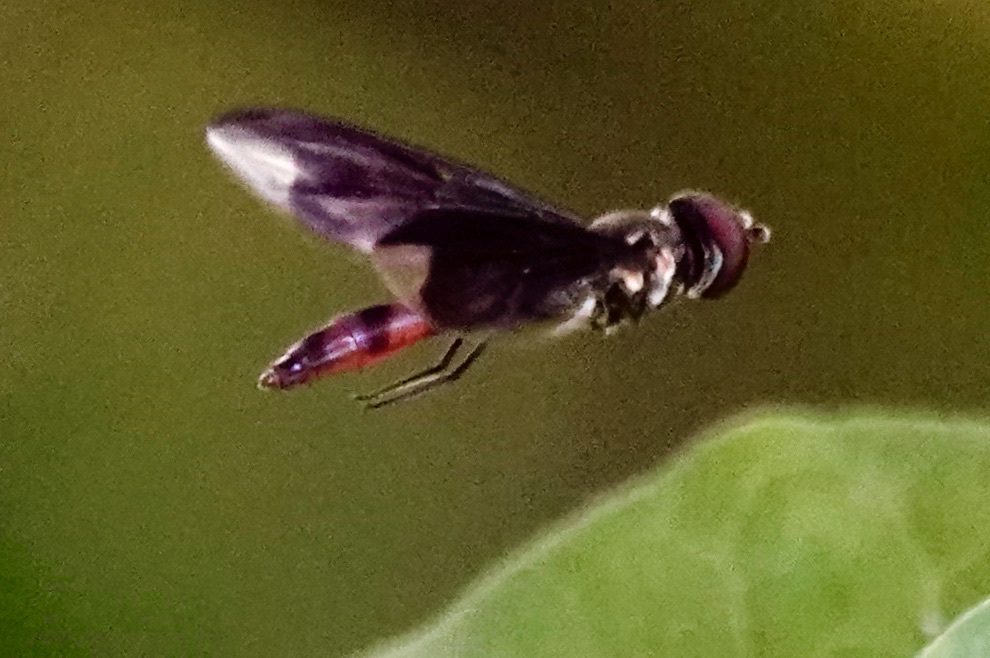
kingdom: Animalia
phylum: Arthropoda
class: Insecta
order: Diptera
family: Syrphidae
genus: Ocyptamus
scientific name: Ocyptamus fuscipennis
